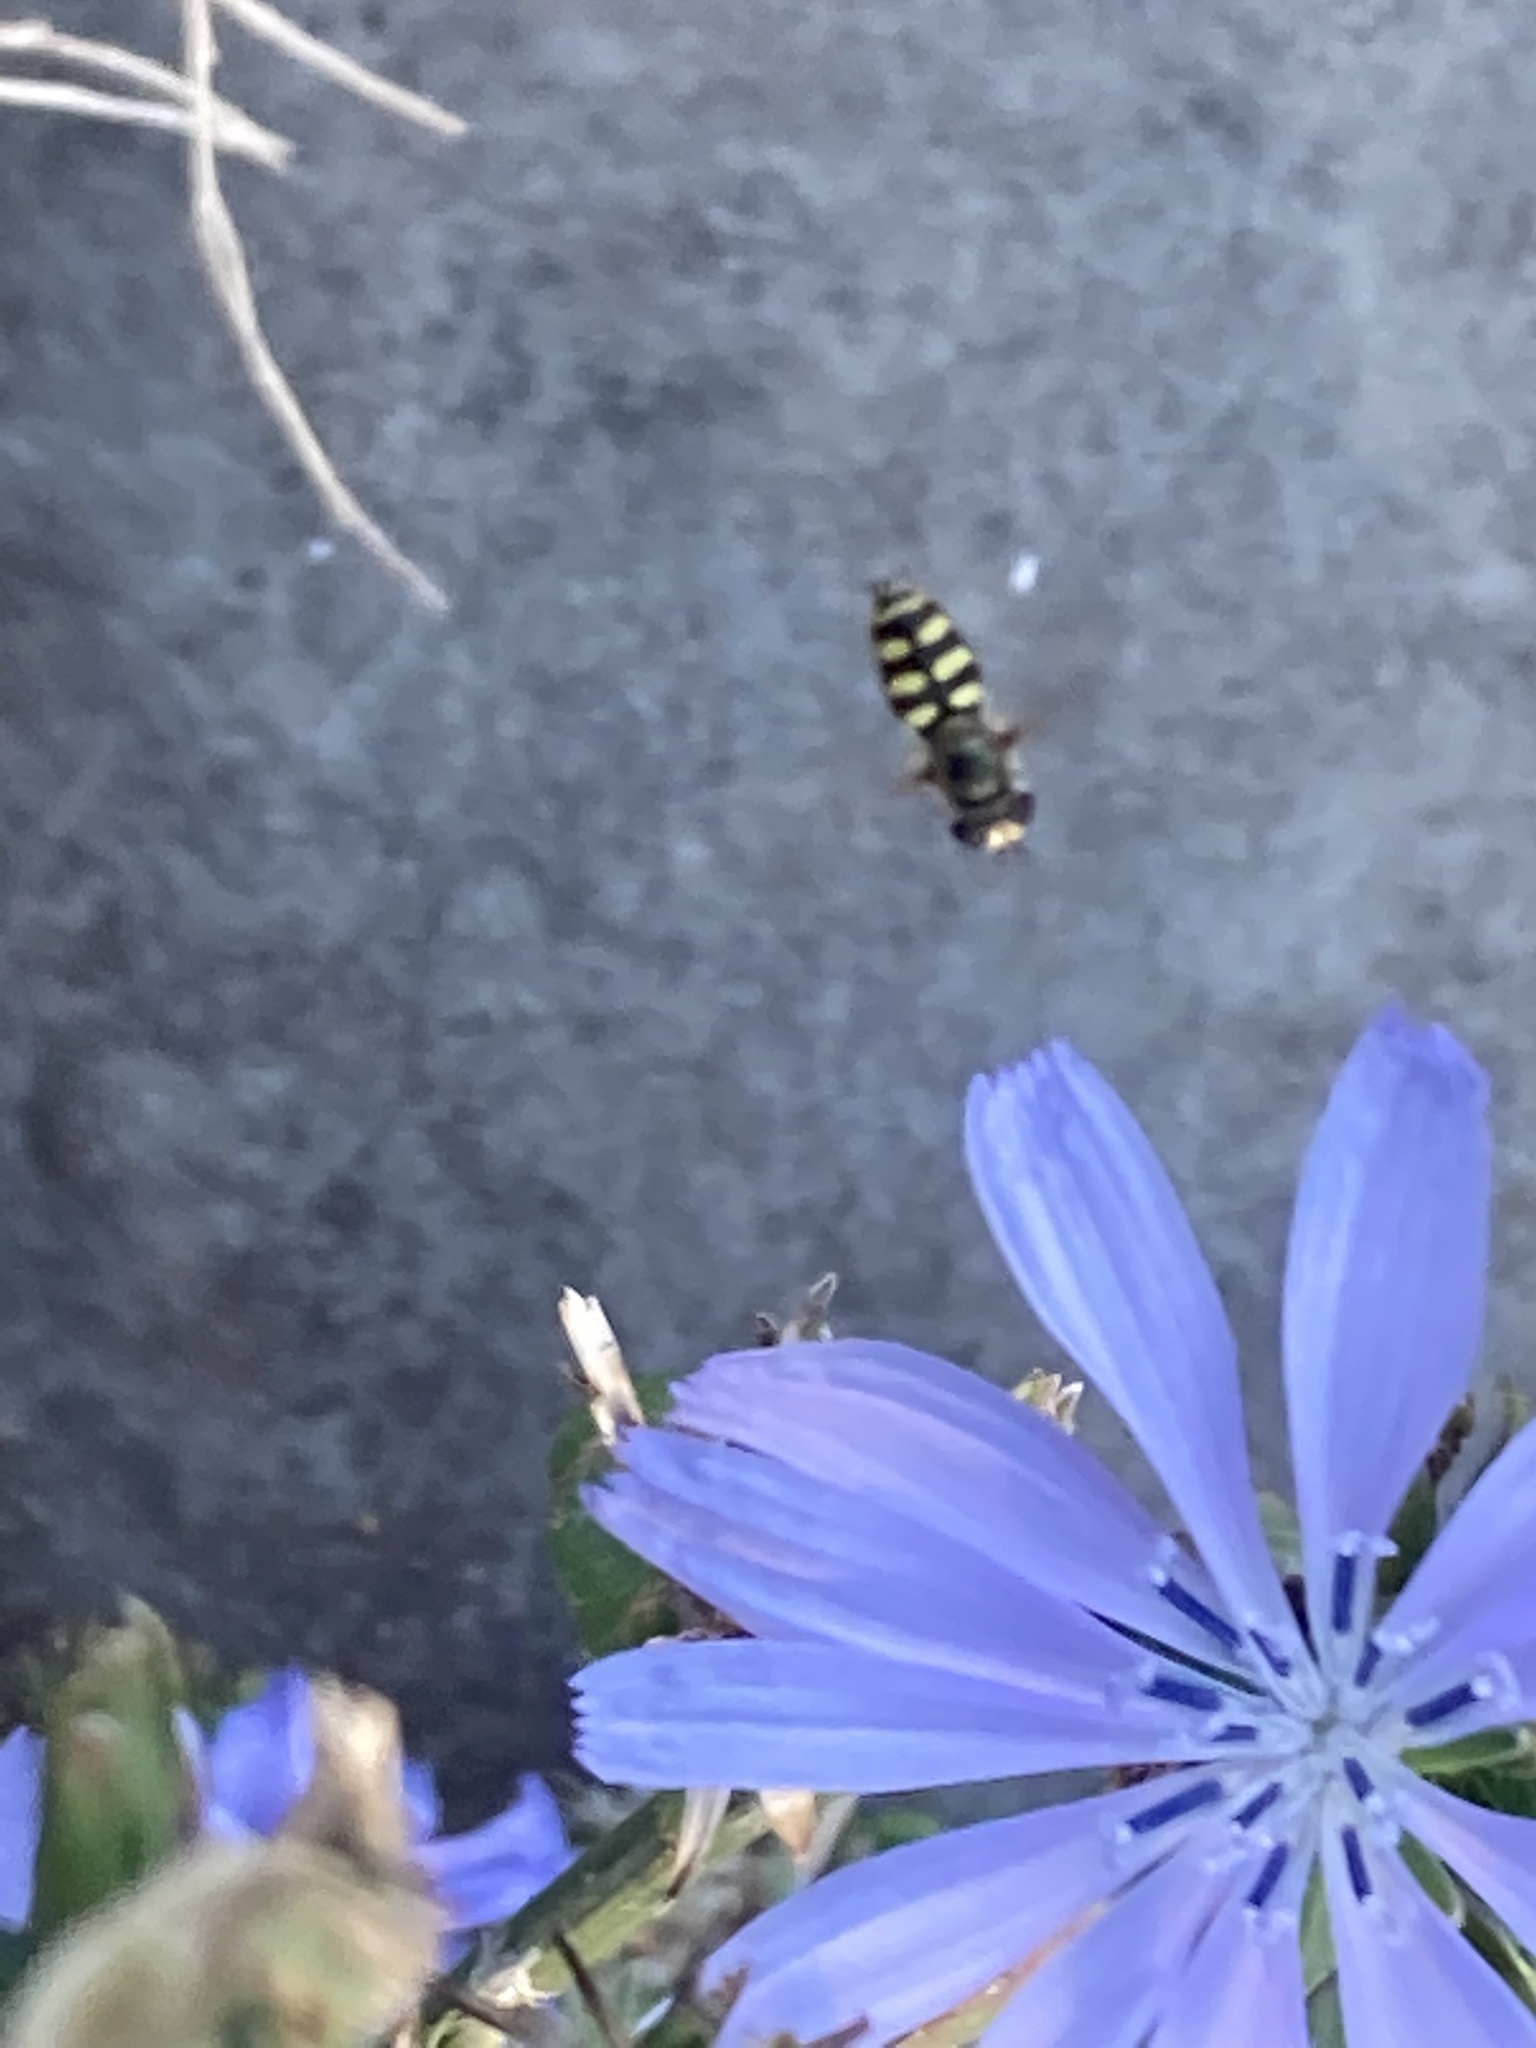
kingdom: Animalia
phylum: Arthropoda
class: Insecta
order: Diptera
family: Syrphidae
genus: Eupeodes
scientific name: Eupeodes corollae
